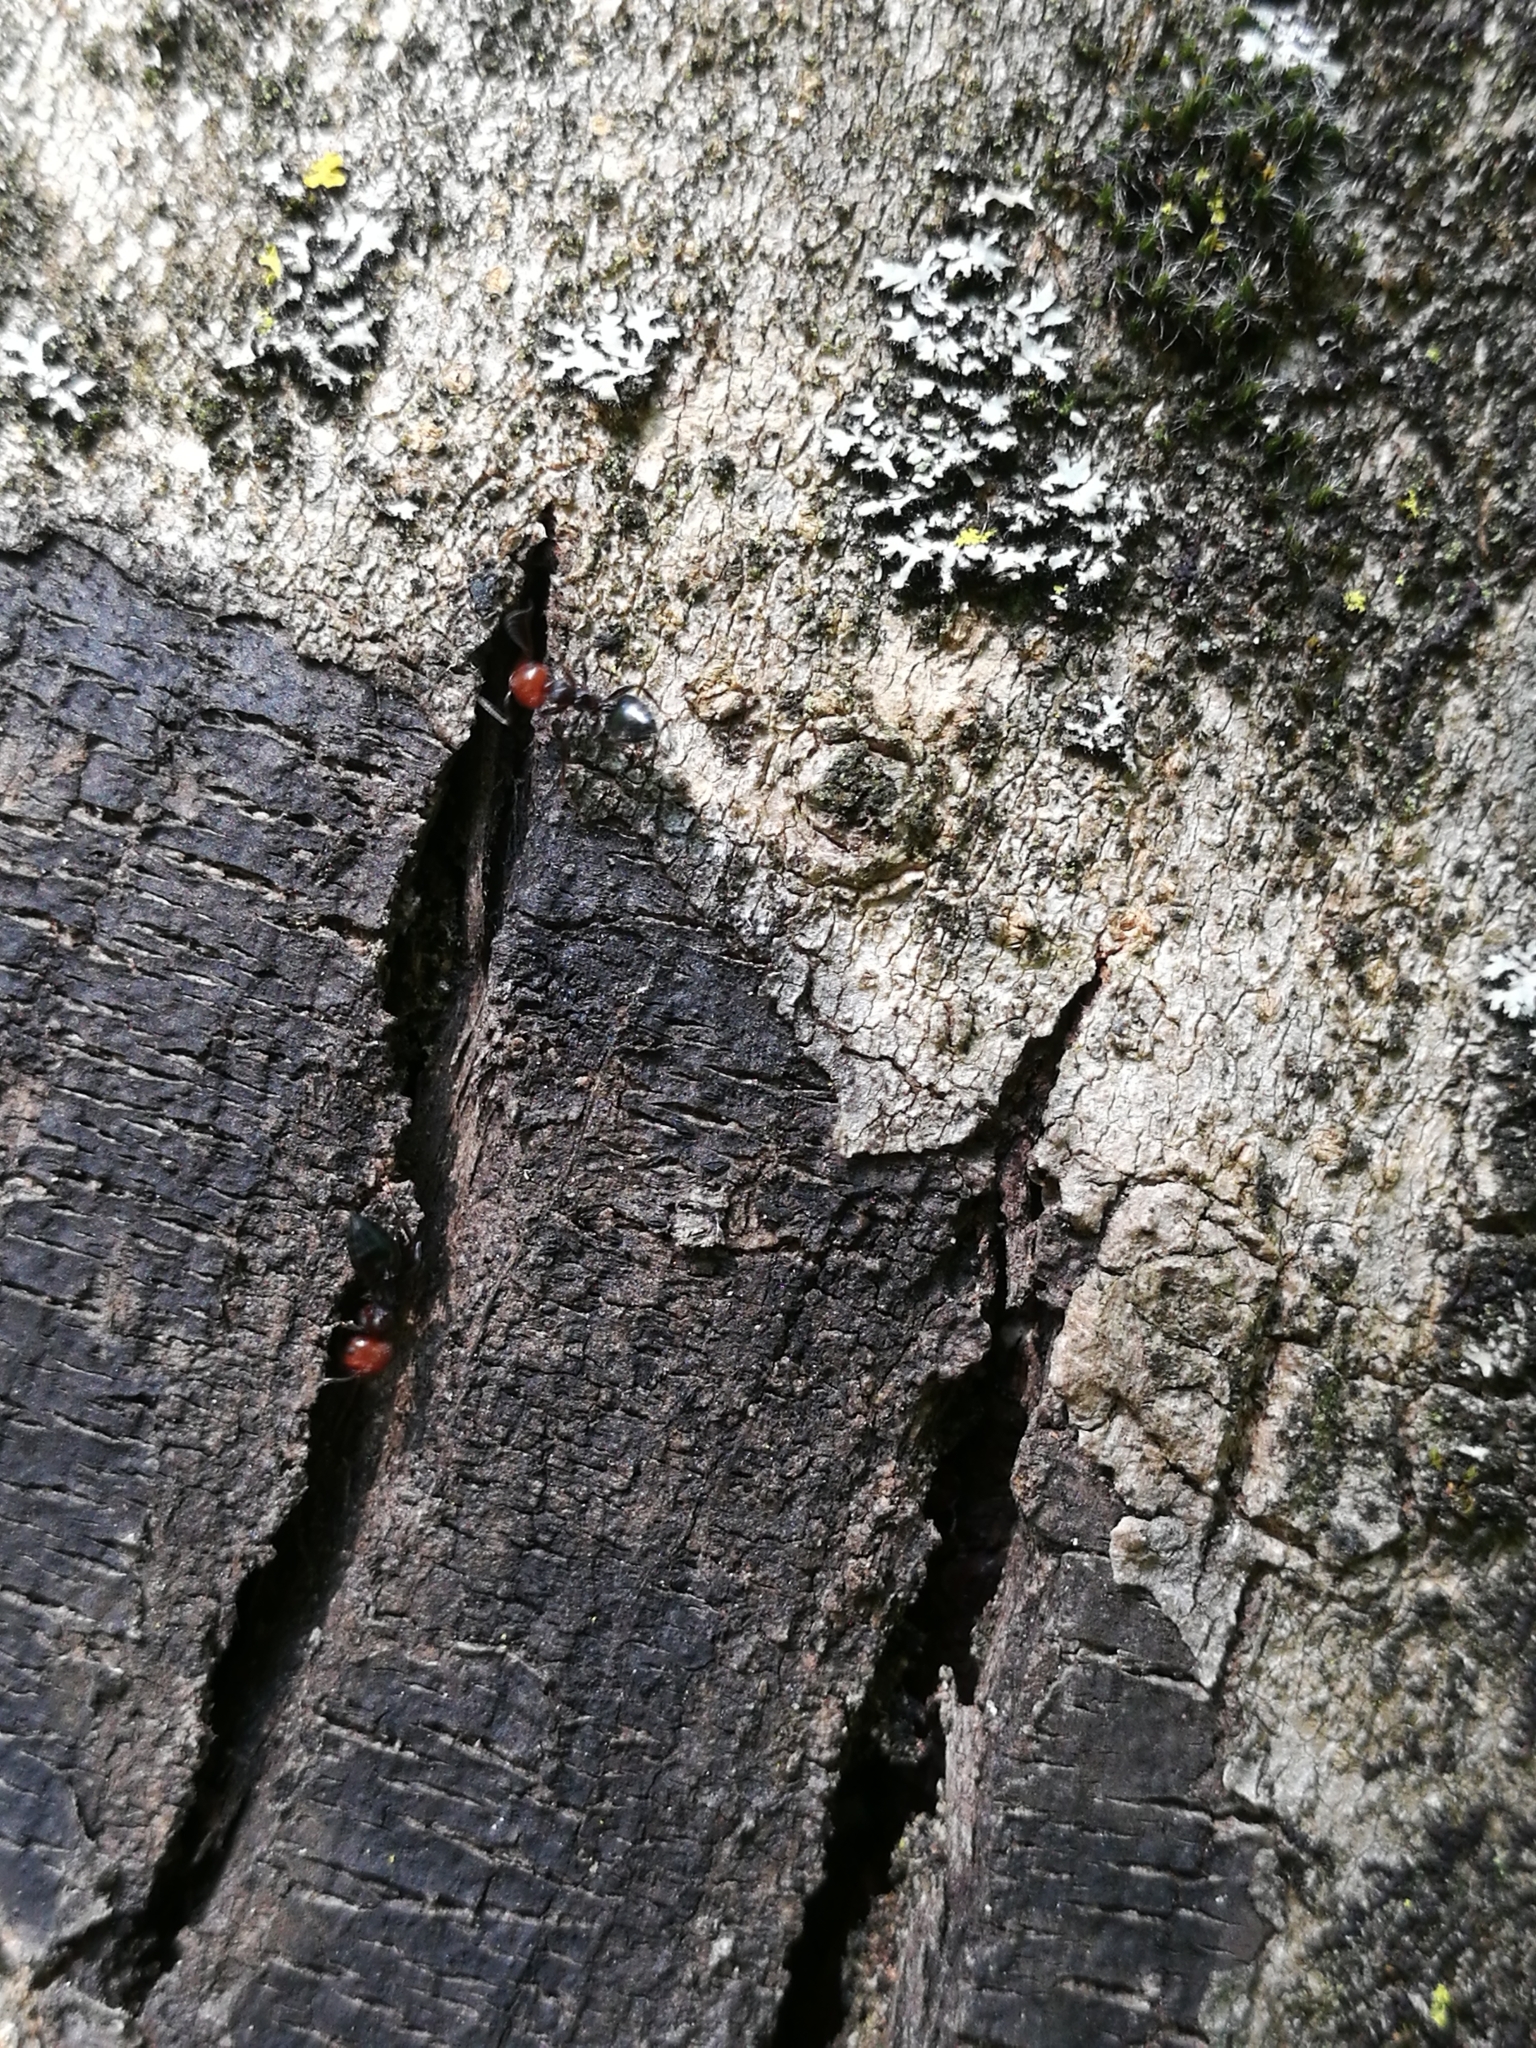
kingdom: Animalia
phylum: Arthropoda
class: Insecta
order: Hymenoptera
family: Formicidae
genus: Crematogaster
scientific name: Crematogaster scutellaris
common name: Fourmi du liège
